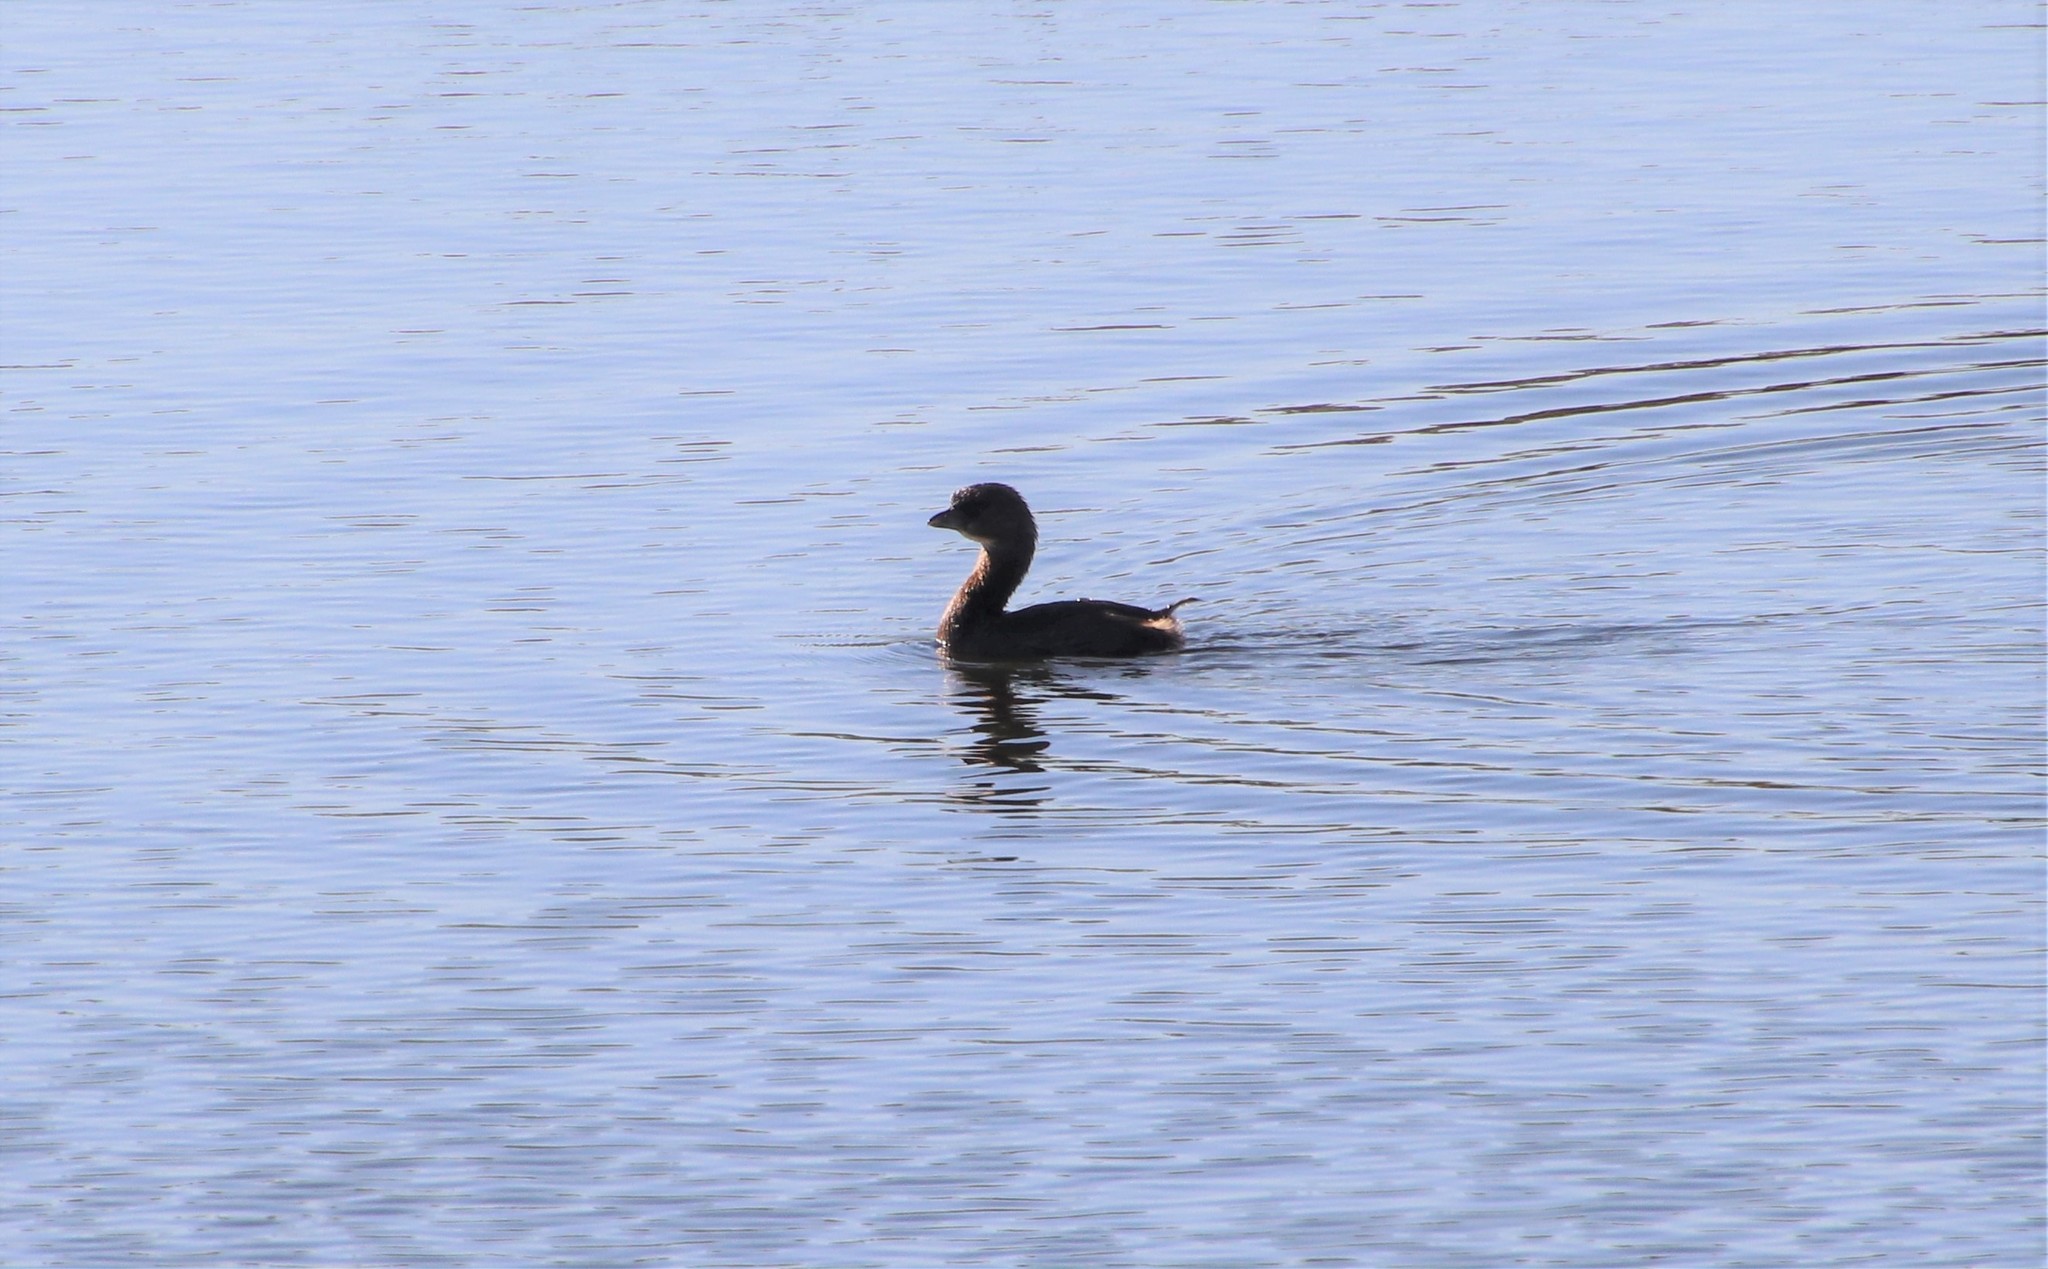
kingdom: Animalia
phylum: Chordata
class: Aves
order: Podicipediformes
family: Podicipedidae
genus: Podilymbus
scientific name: Podilymbus podiceps
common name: Pied-billed grebe
